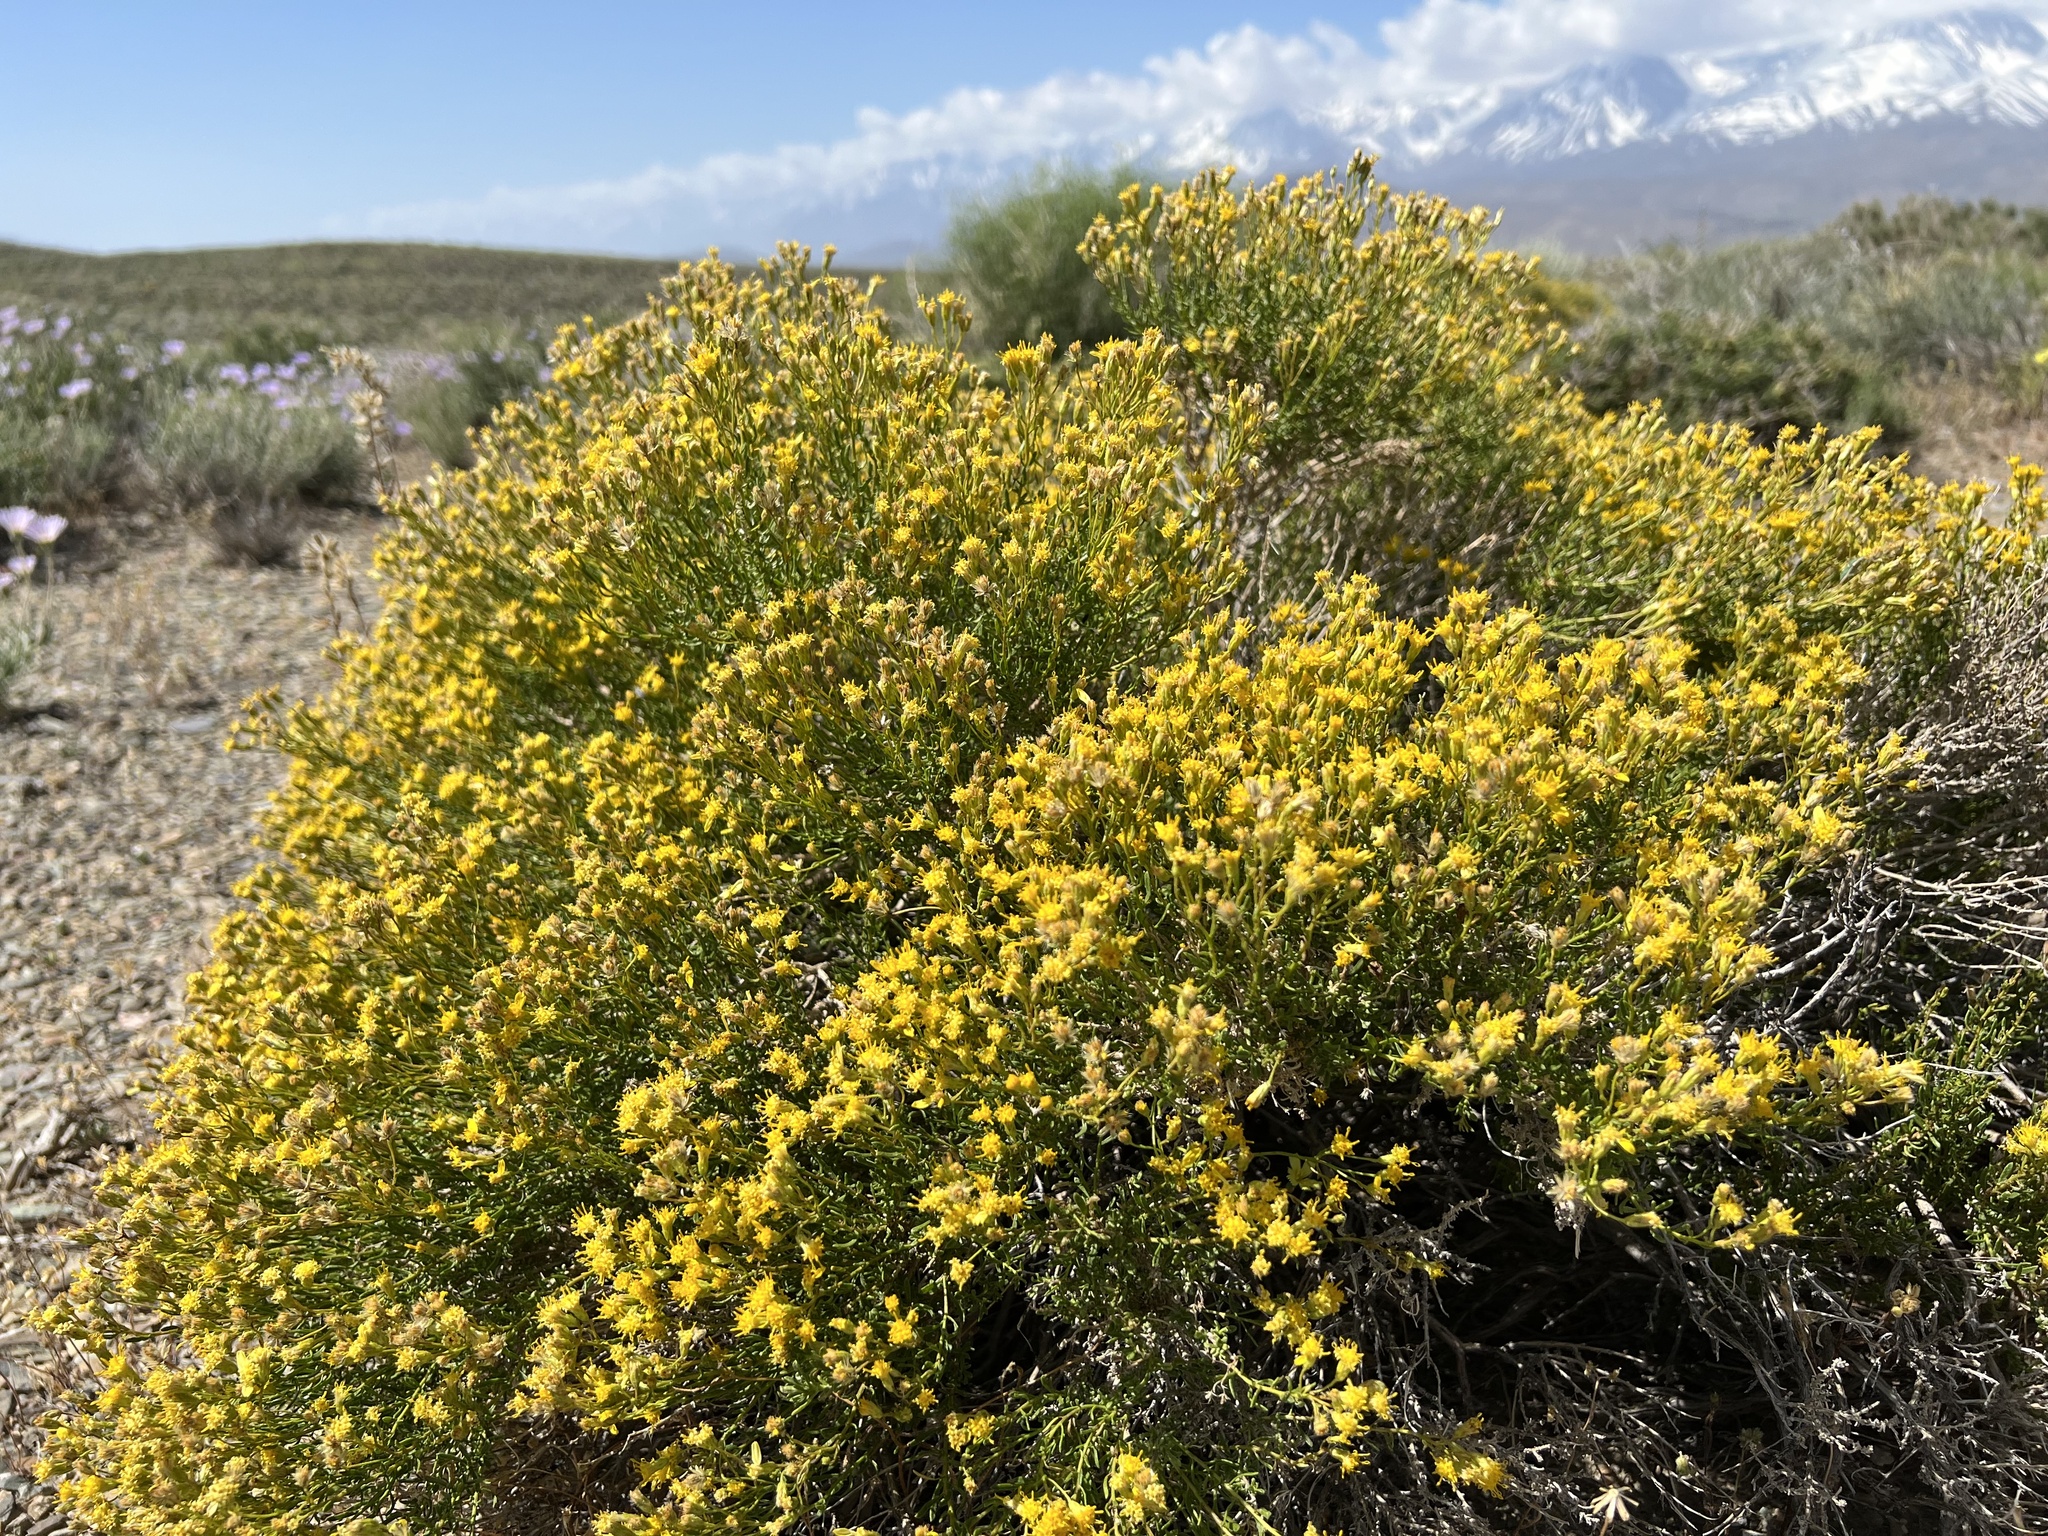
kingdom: Plantae
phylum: Tracheophyta
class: Magnoliopsida
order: Asterales
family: Asteraceae
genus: Ericameria
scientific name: Ericameria cooperi
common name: Cooper's goldenbush
